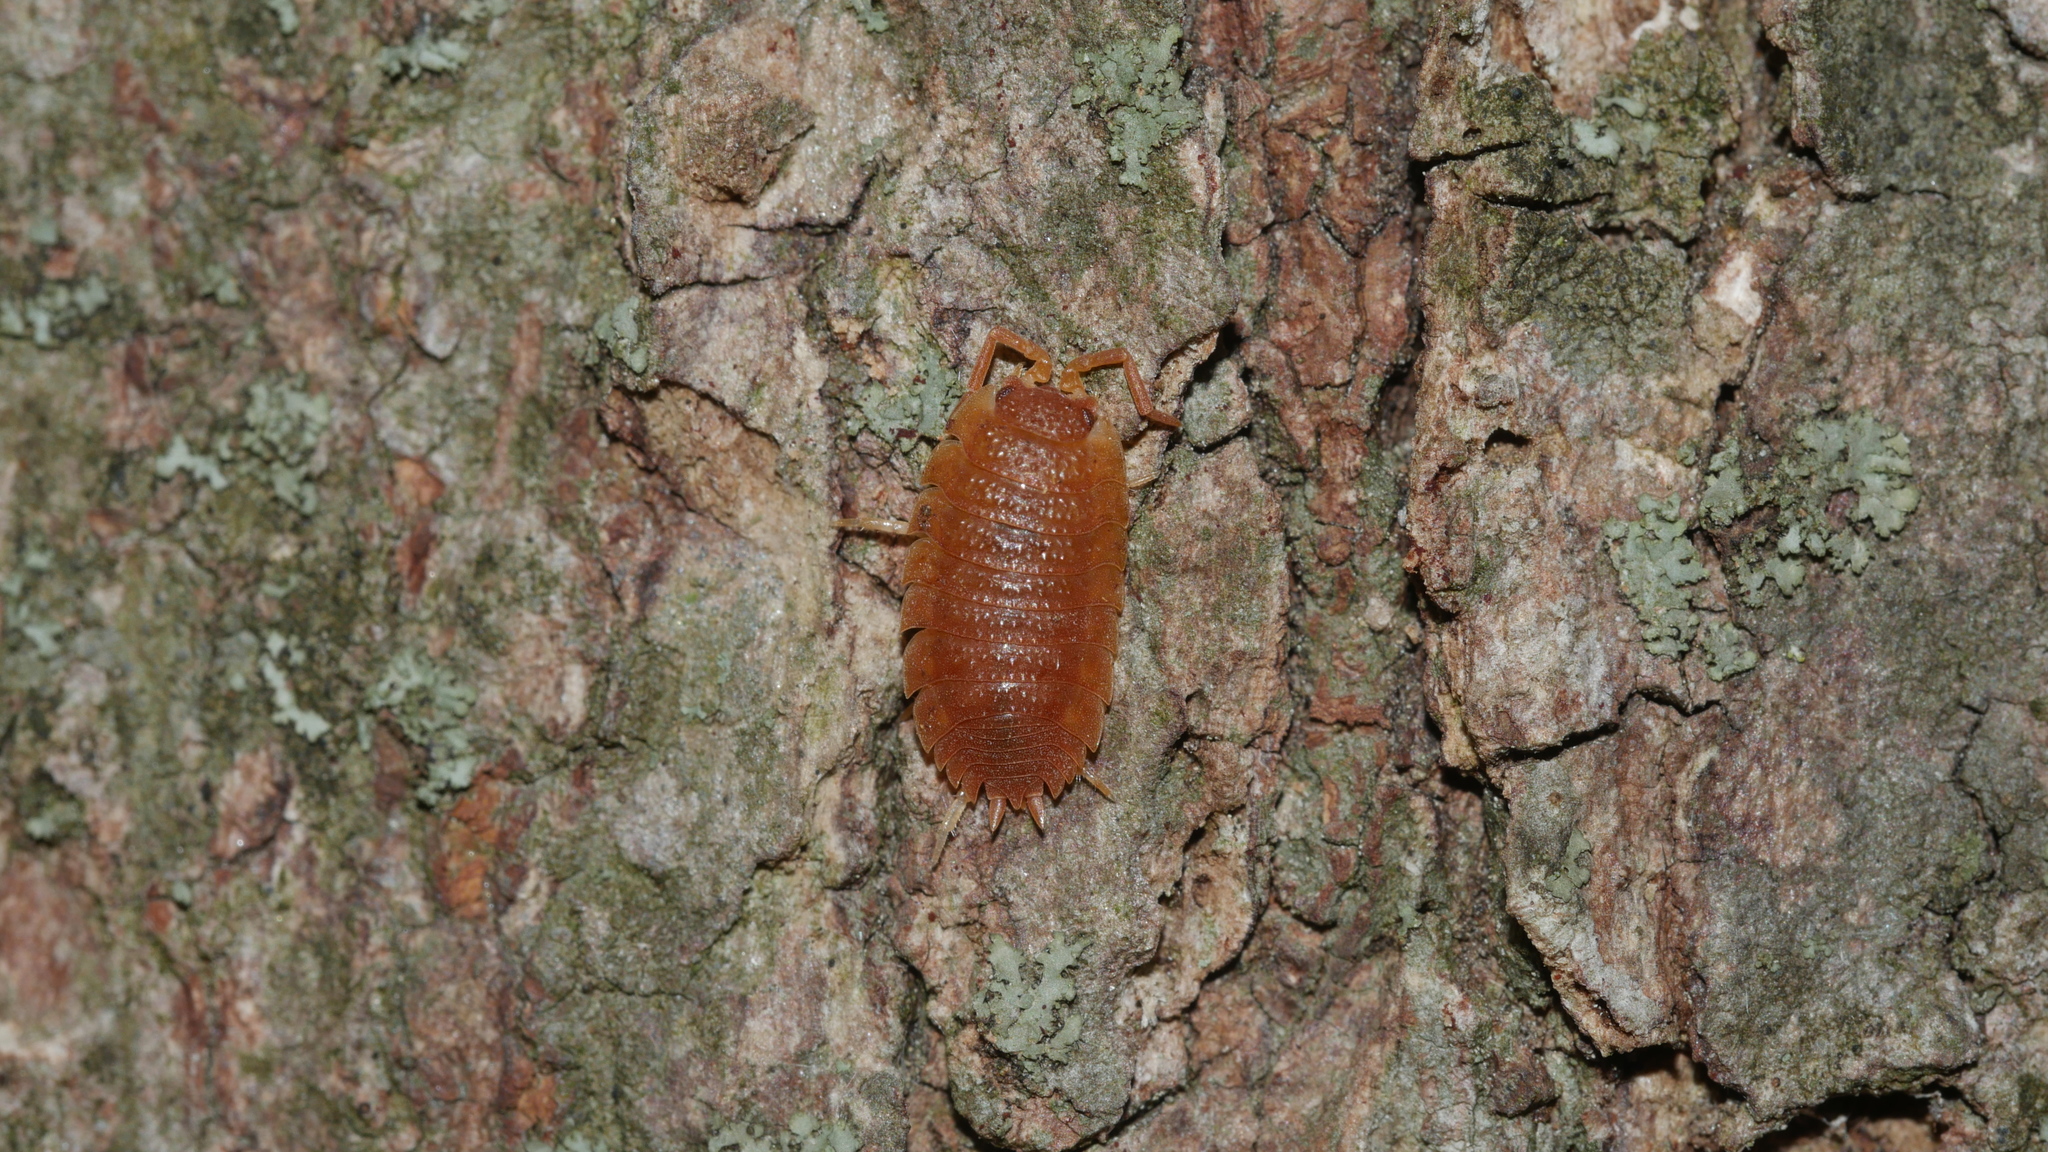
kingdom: Animalia
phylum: Arthropoda
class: Malacostraca
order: Isopoda
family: Porcellionidae
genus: Porcellio
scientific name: Porcellio scaber
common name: Common rough woodlouse
